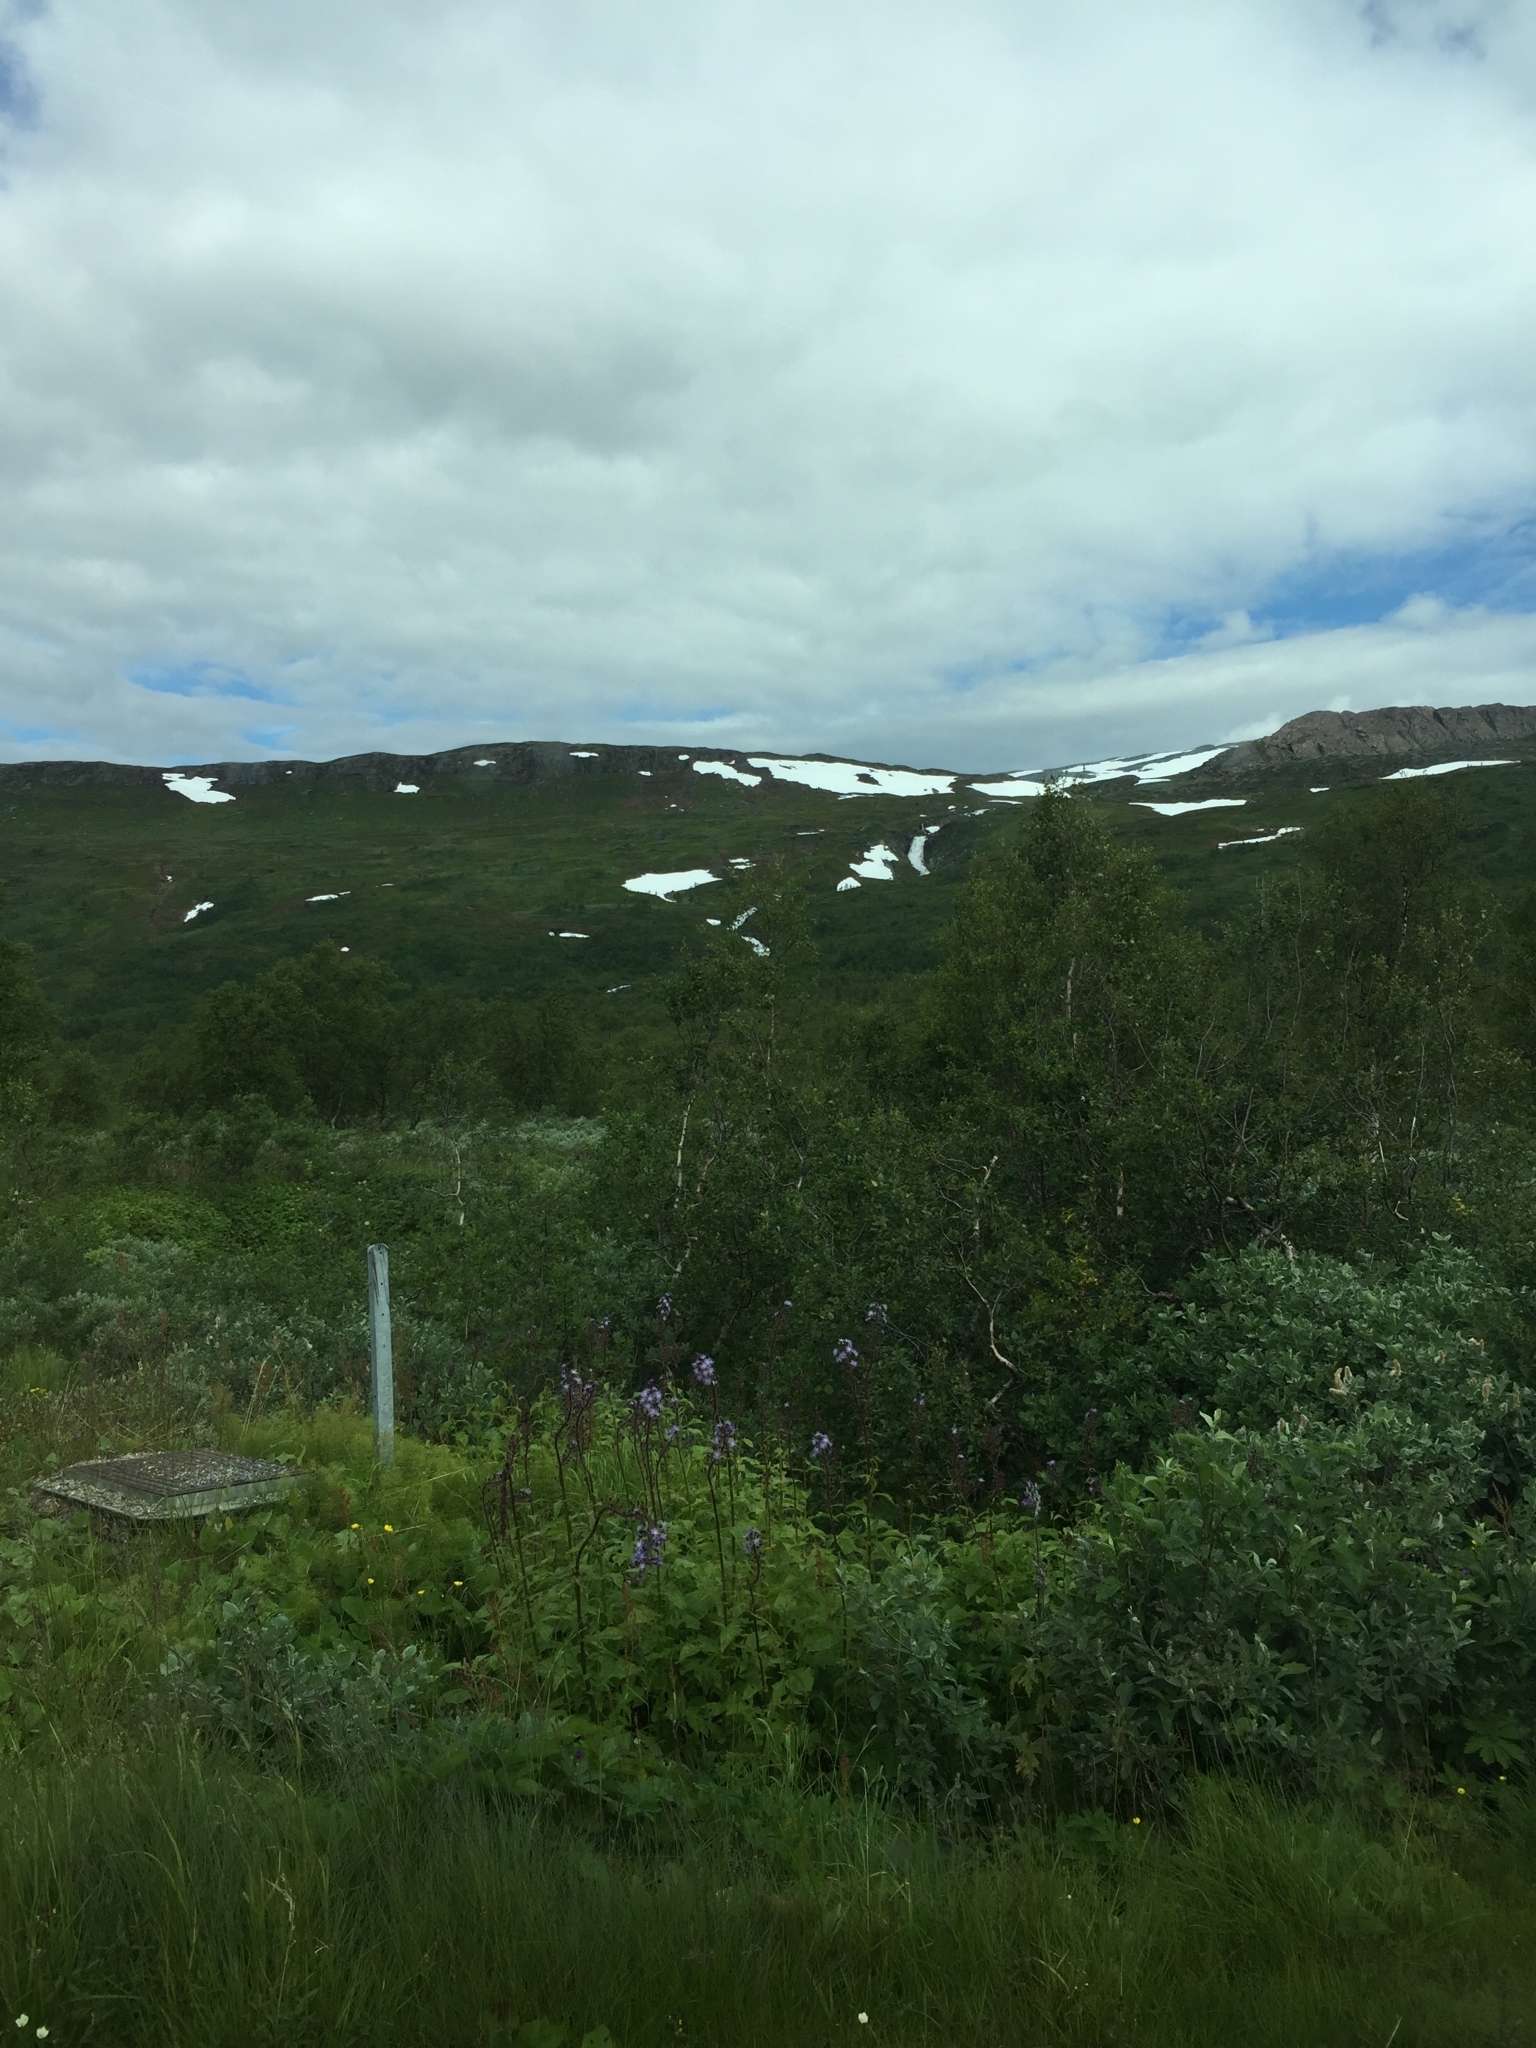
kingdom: Plantae
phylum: Tracheophyta
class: Magnoliopsida
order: Asterales
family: Asteraceae
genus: Cicerbita
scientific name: Cicerbita alpina
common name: Alpine blue-sow-thistle
